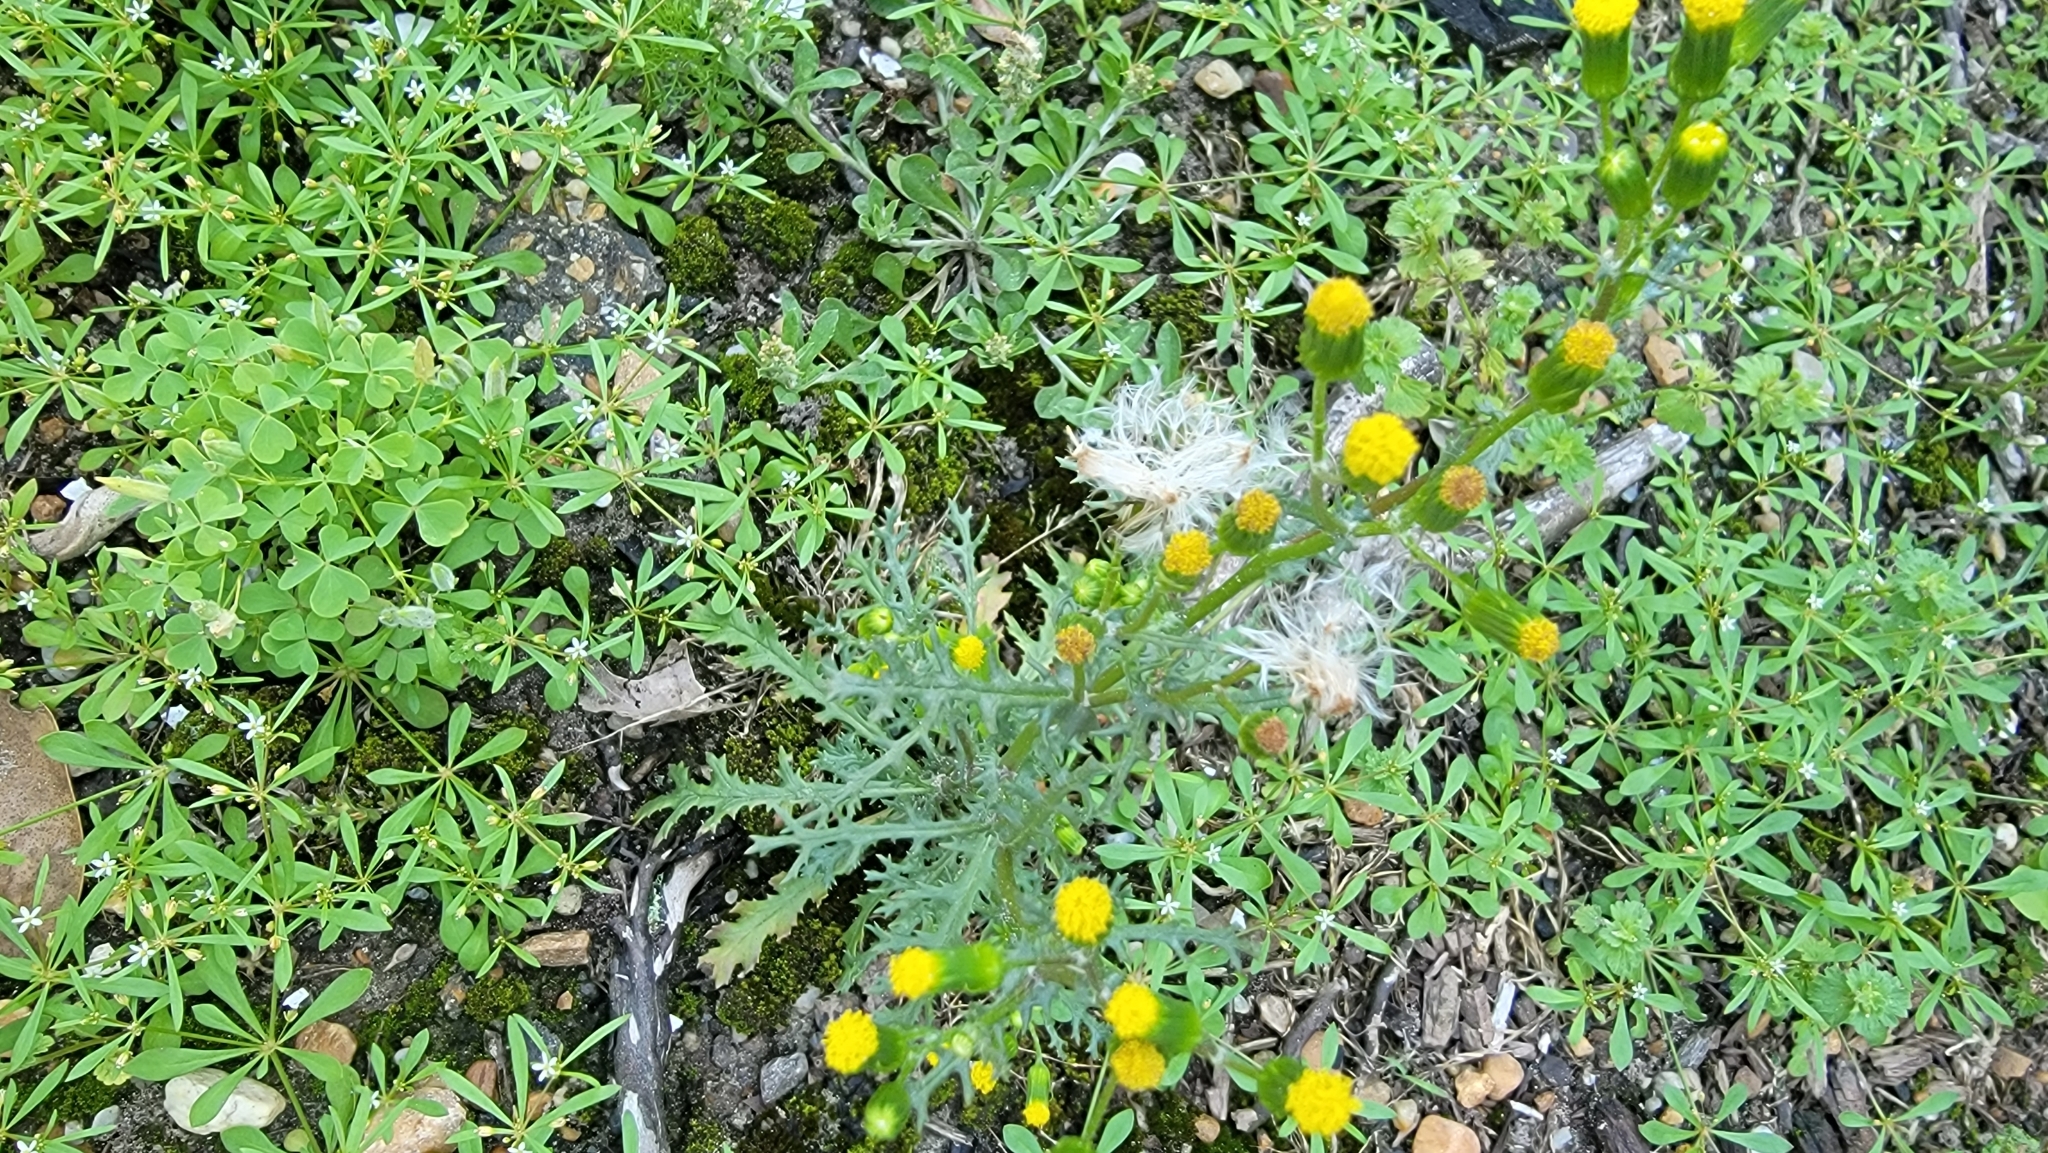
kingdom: Plantae
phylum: Tracheophyta
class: Magnoliopsida
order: Asterales
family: Asteraceae
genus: Senecio
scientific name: Senecio vulgaris
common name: Old-man-in-the-spring
